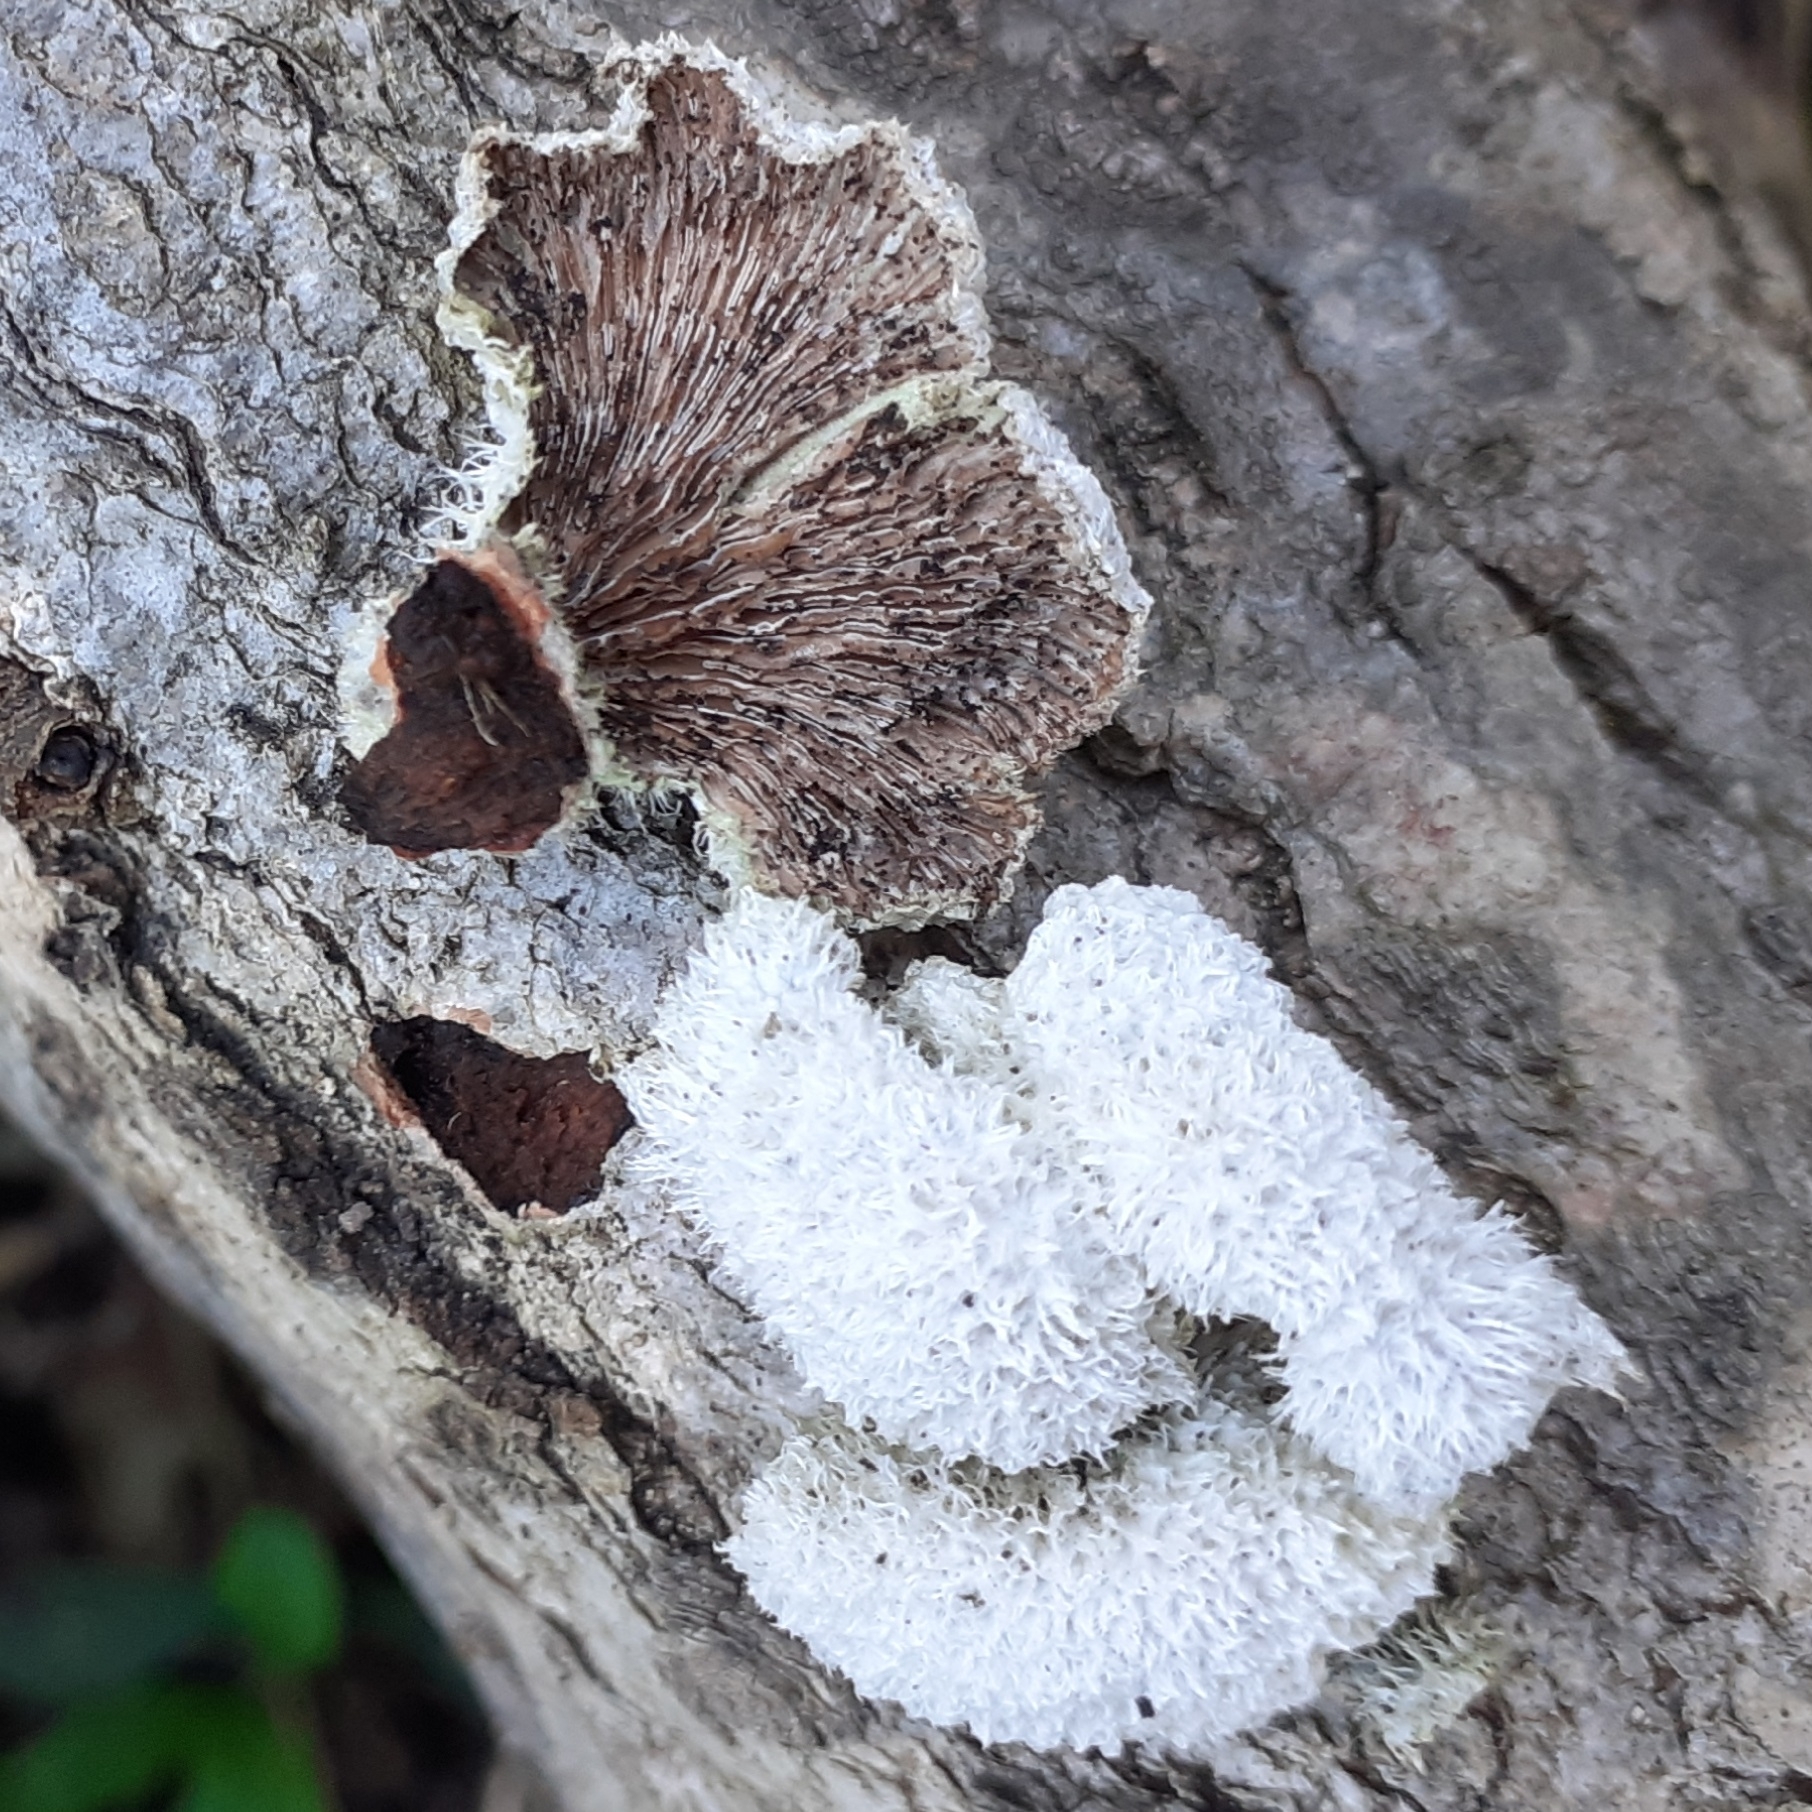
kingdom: Fungi
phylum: Basidiomycota
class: Agaricomycetes
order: Agaricales
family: Schizophyllaceae
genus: Schizophyllum
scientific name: Schizophyllum commune
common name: Common porecrust
